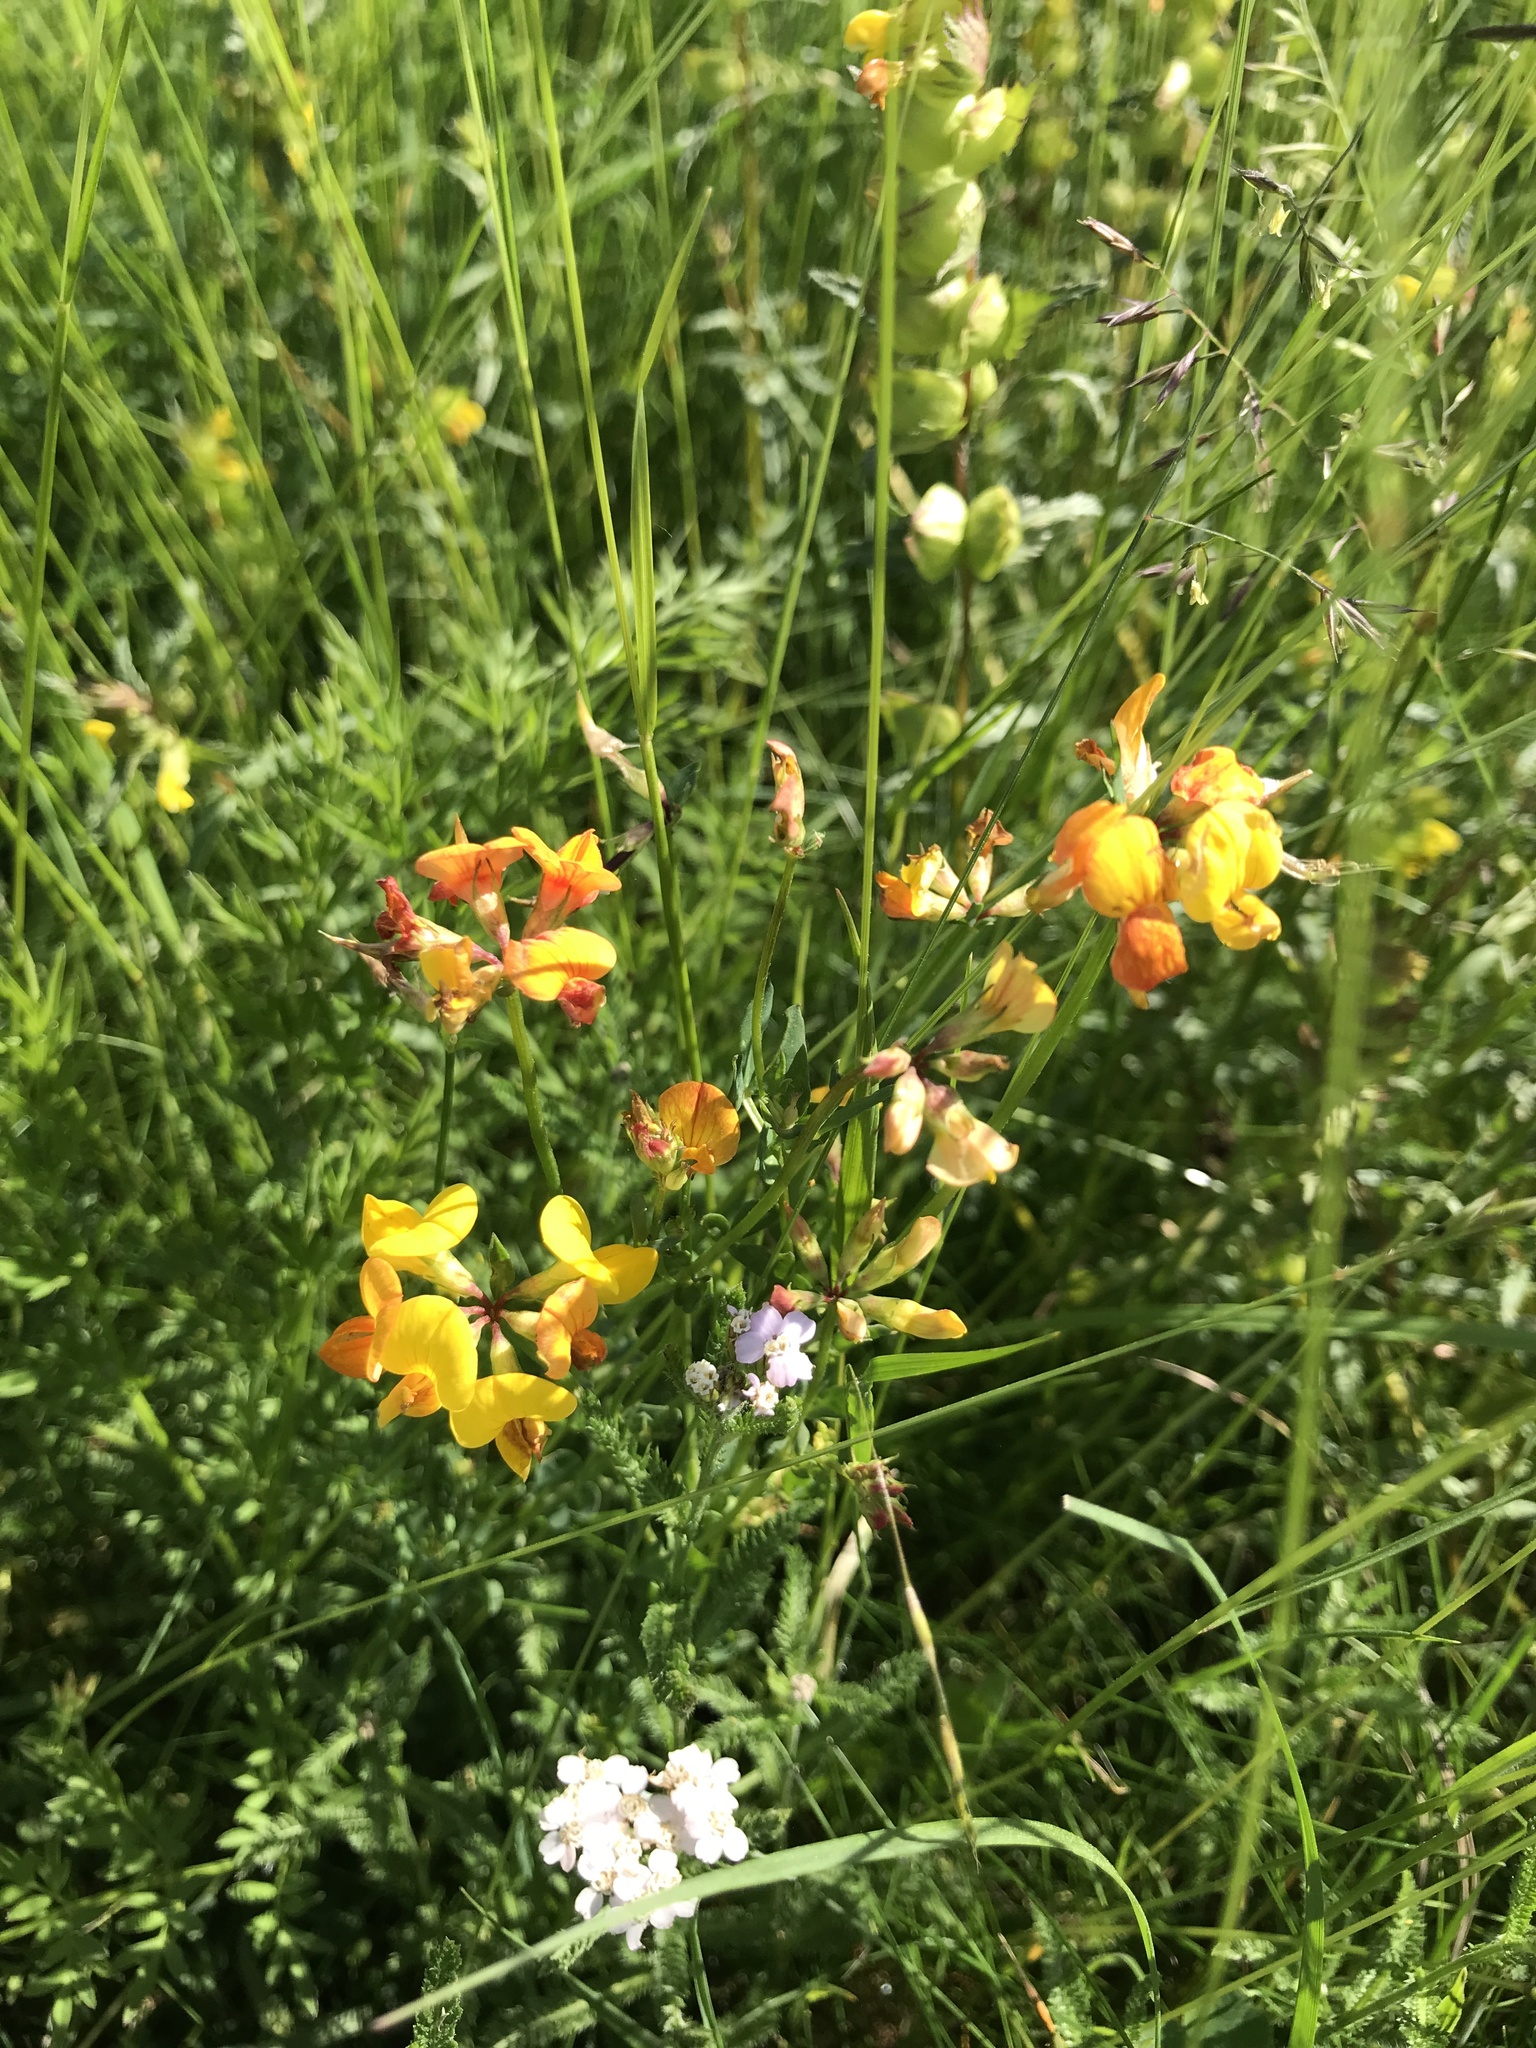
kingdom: Plantae
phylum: Tracheophyta
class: Magnoliopsida
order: Fabales
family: Fabaceae
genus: Lotus
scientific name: Lotus corniculatus
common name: Common bird's-foot-trefoil
